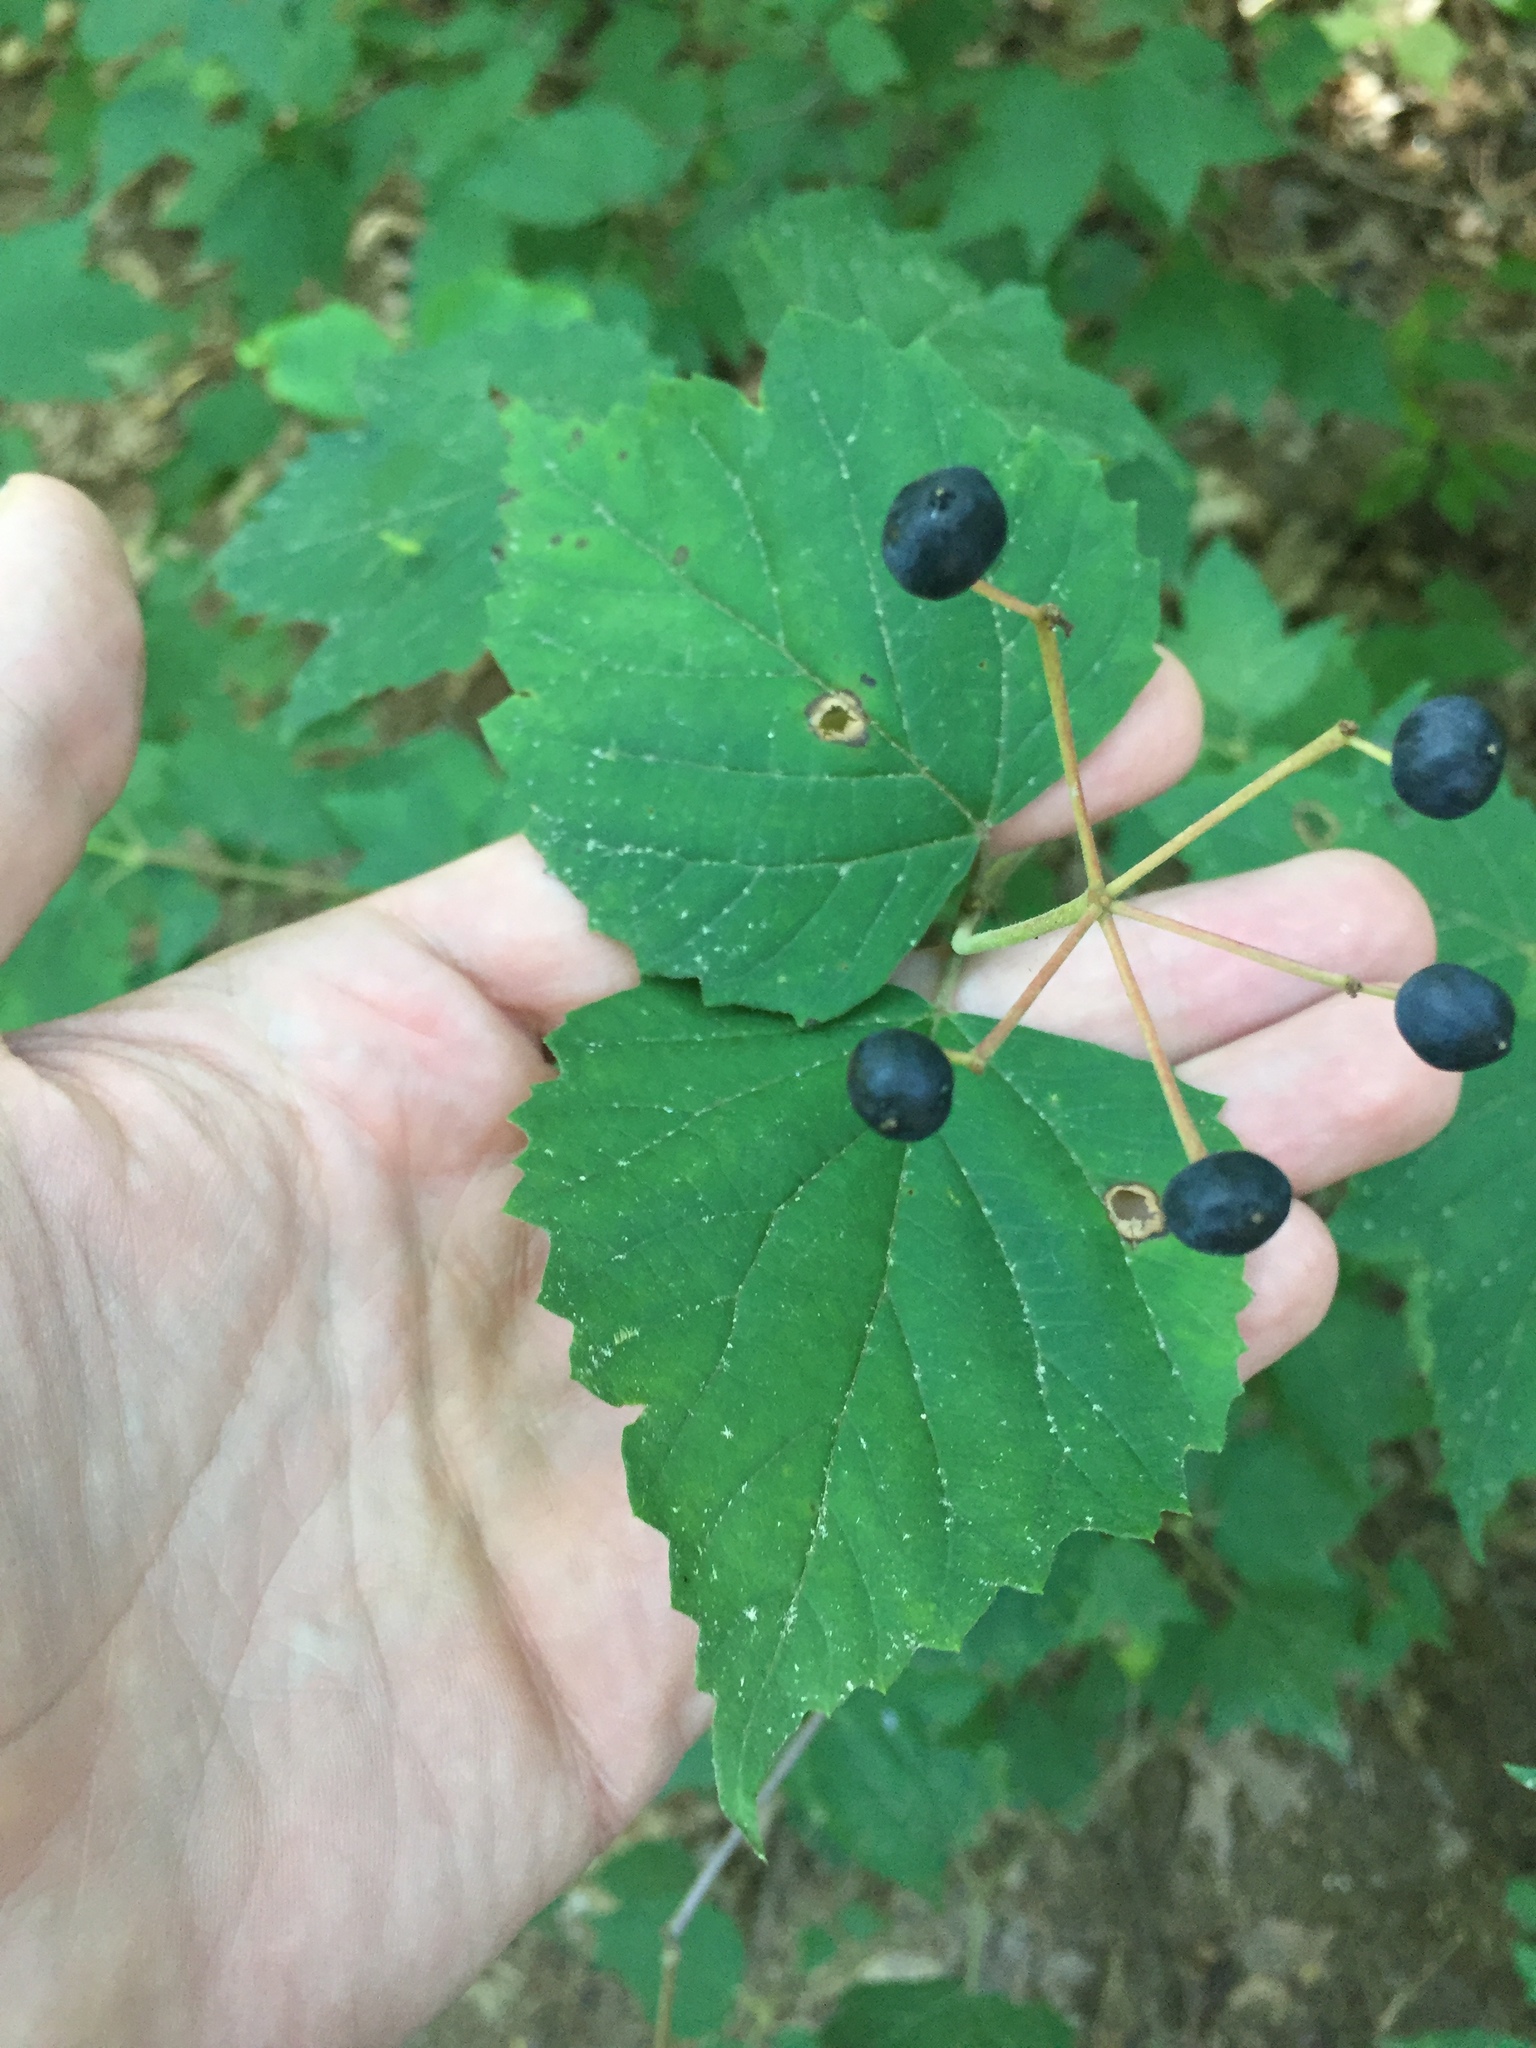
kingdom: Plantae
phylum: Tracheophyta
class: Magnoliopsida
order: Dipsacales
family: Viburnaceae
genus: Viburnum
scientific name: Viburnum acerifolium
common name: Dockmackie
